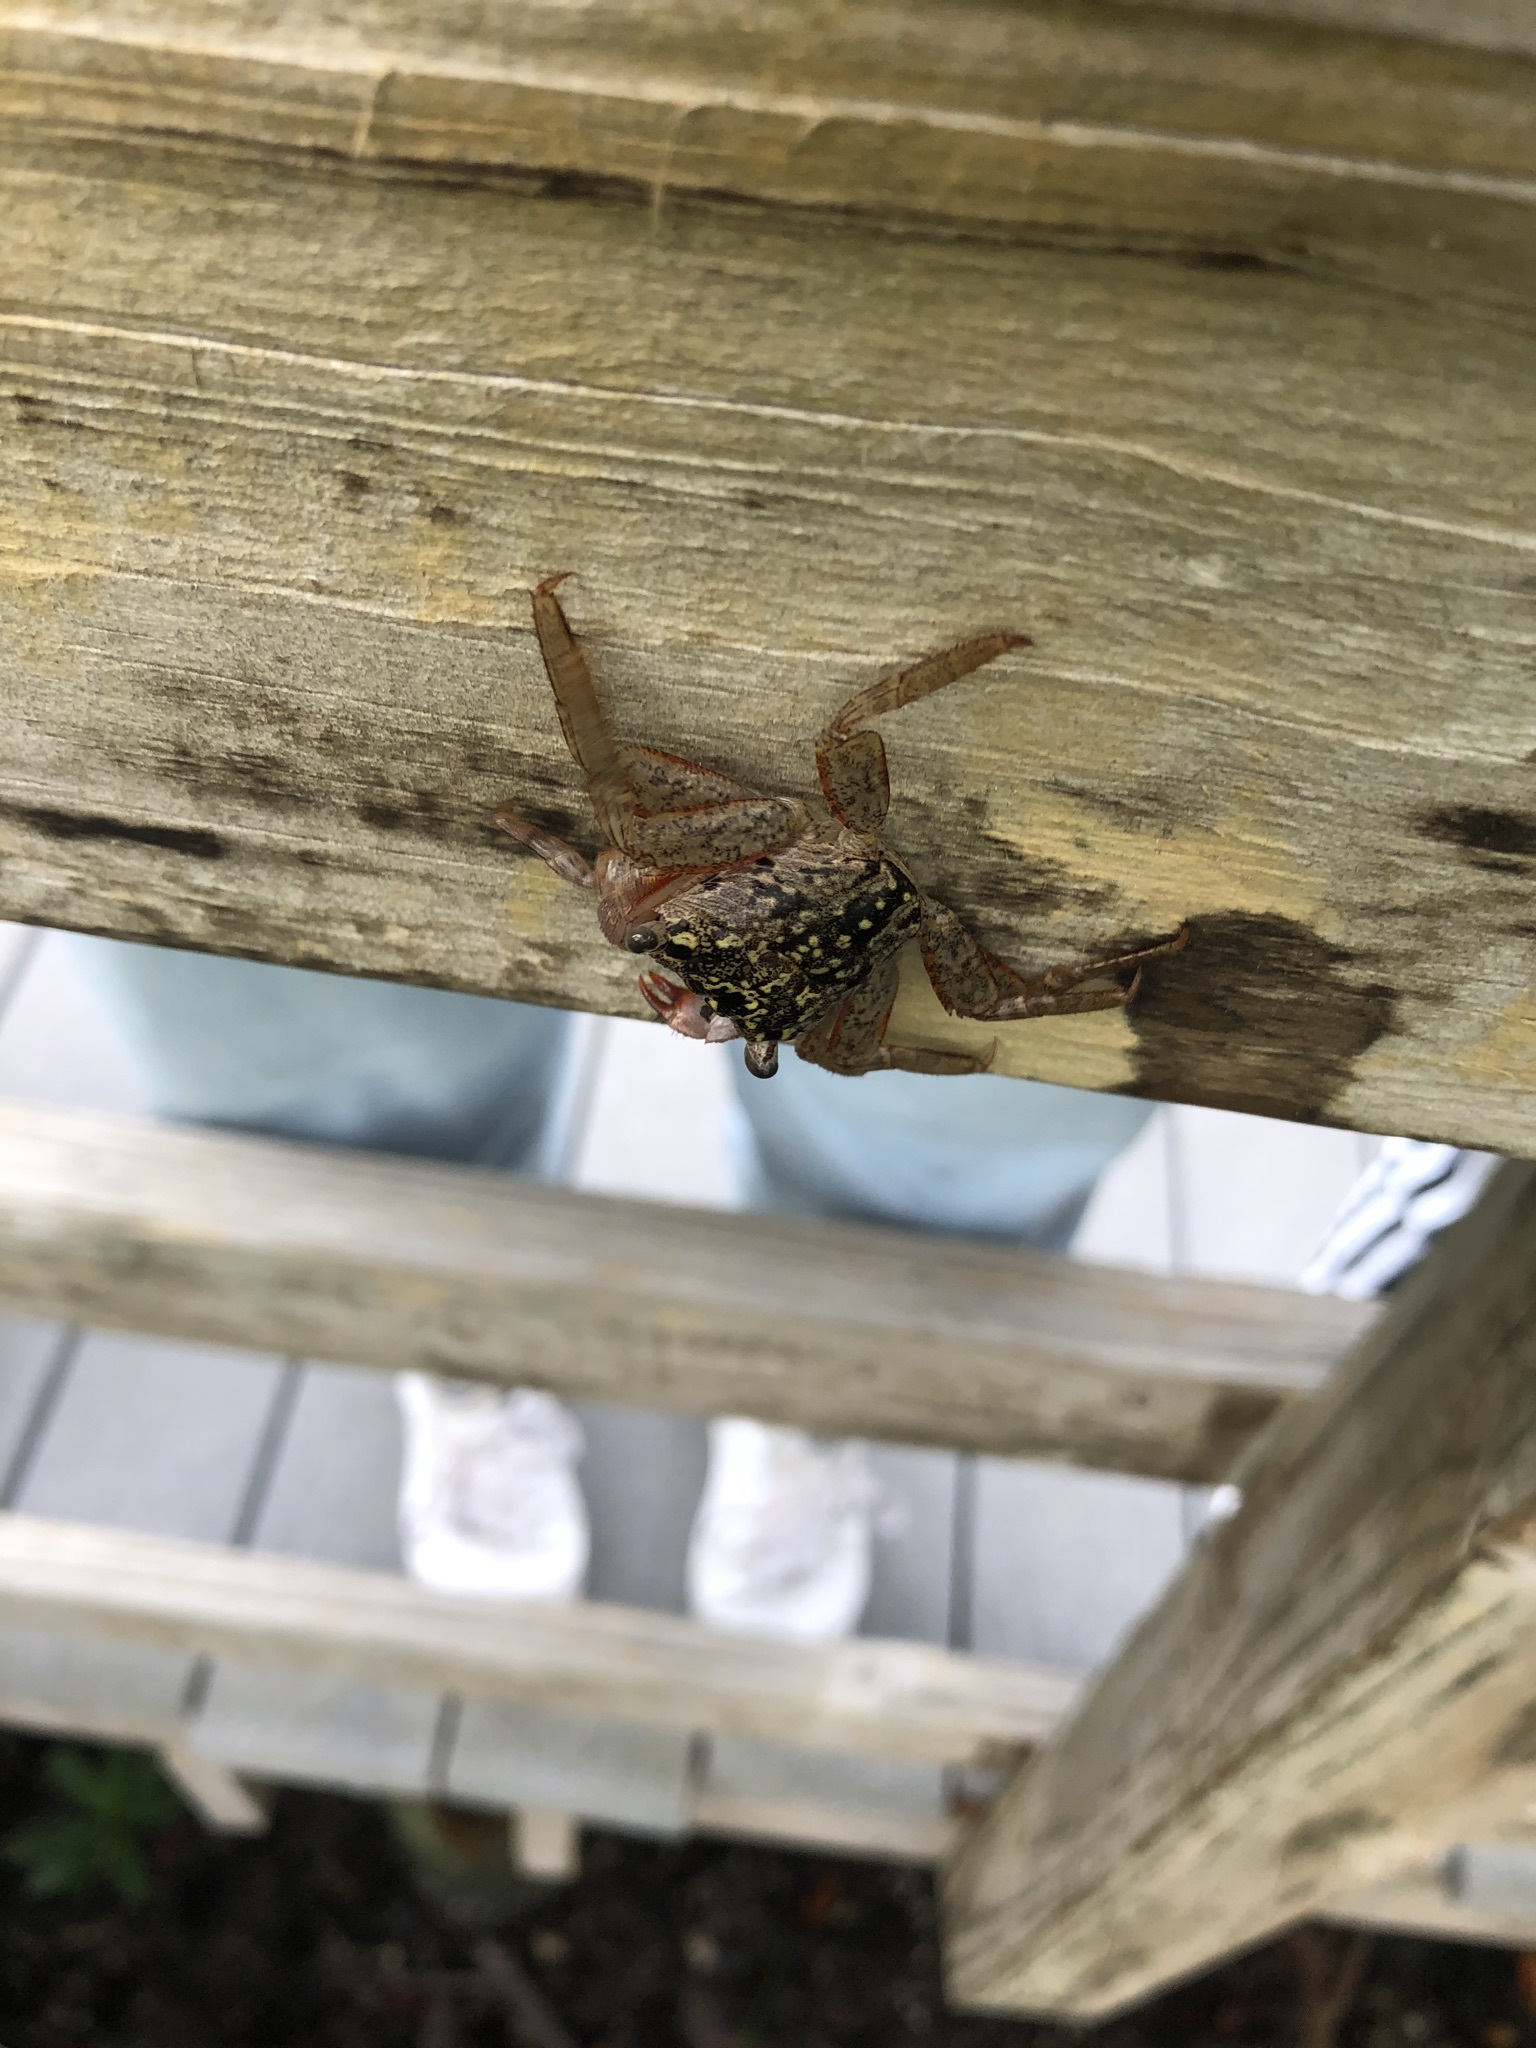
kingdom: Animalia
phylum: Arthropoda
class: Malacostraca
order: Decapoda
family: Sesarmidae
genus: Aratus
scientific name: Aratus pisonii
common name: Mangrove crab
